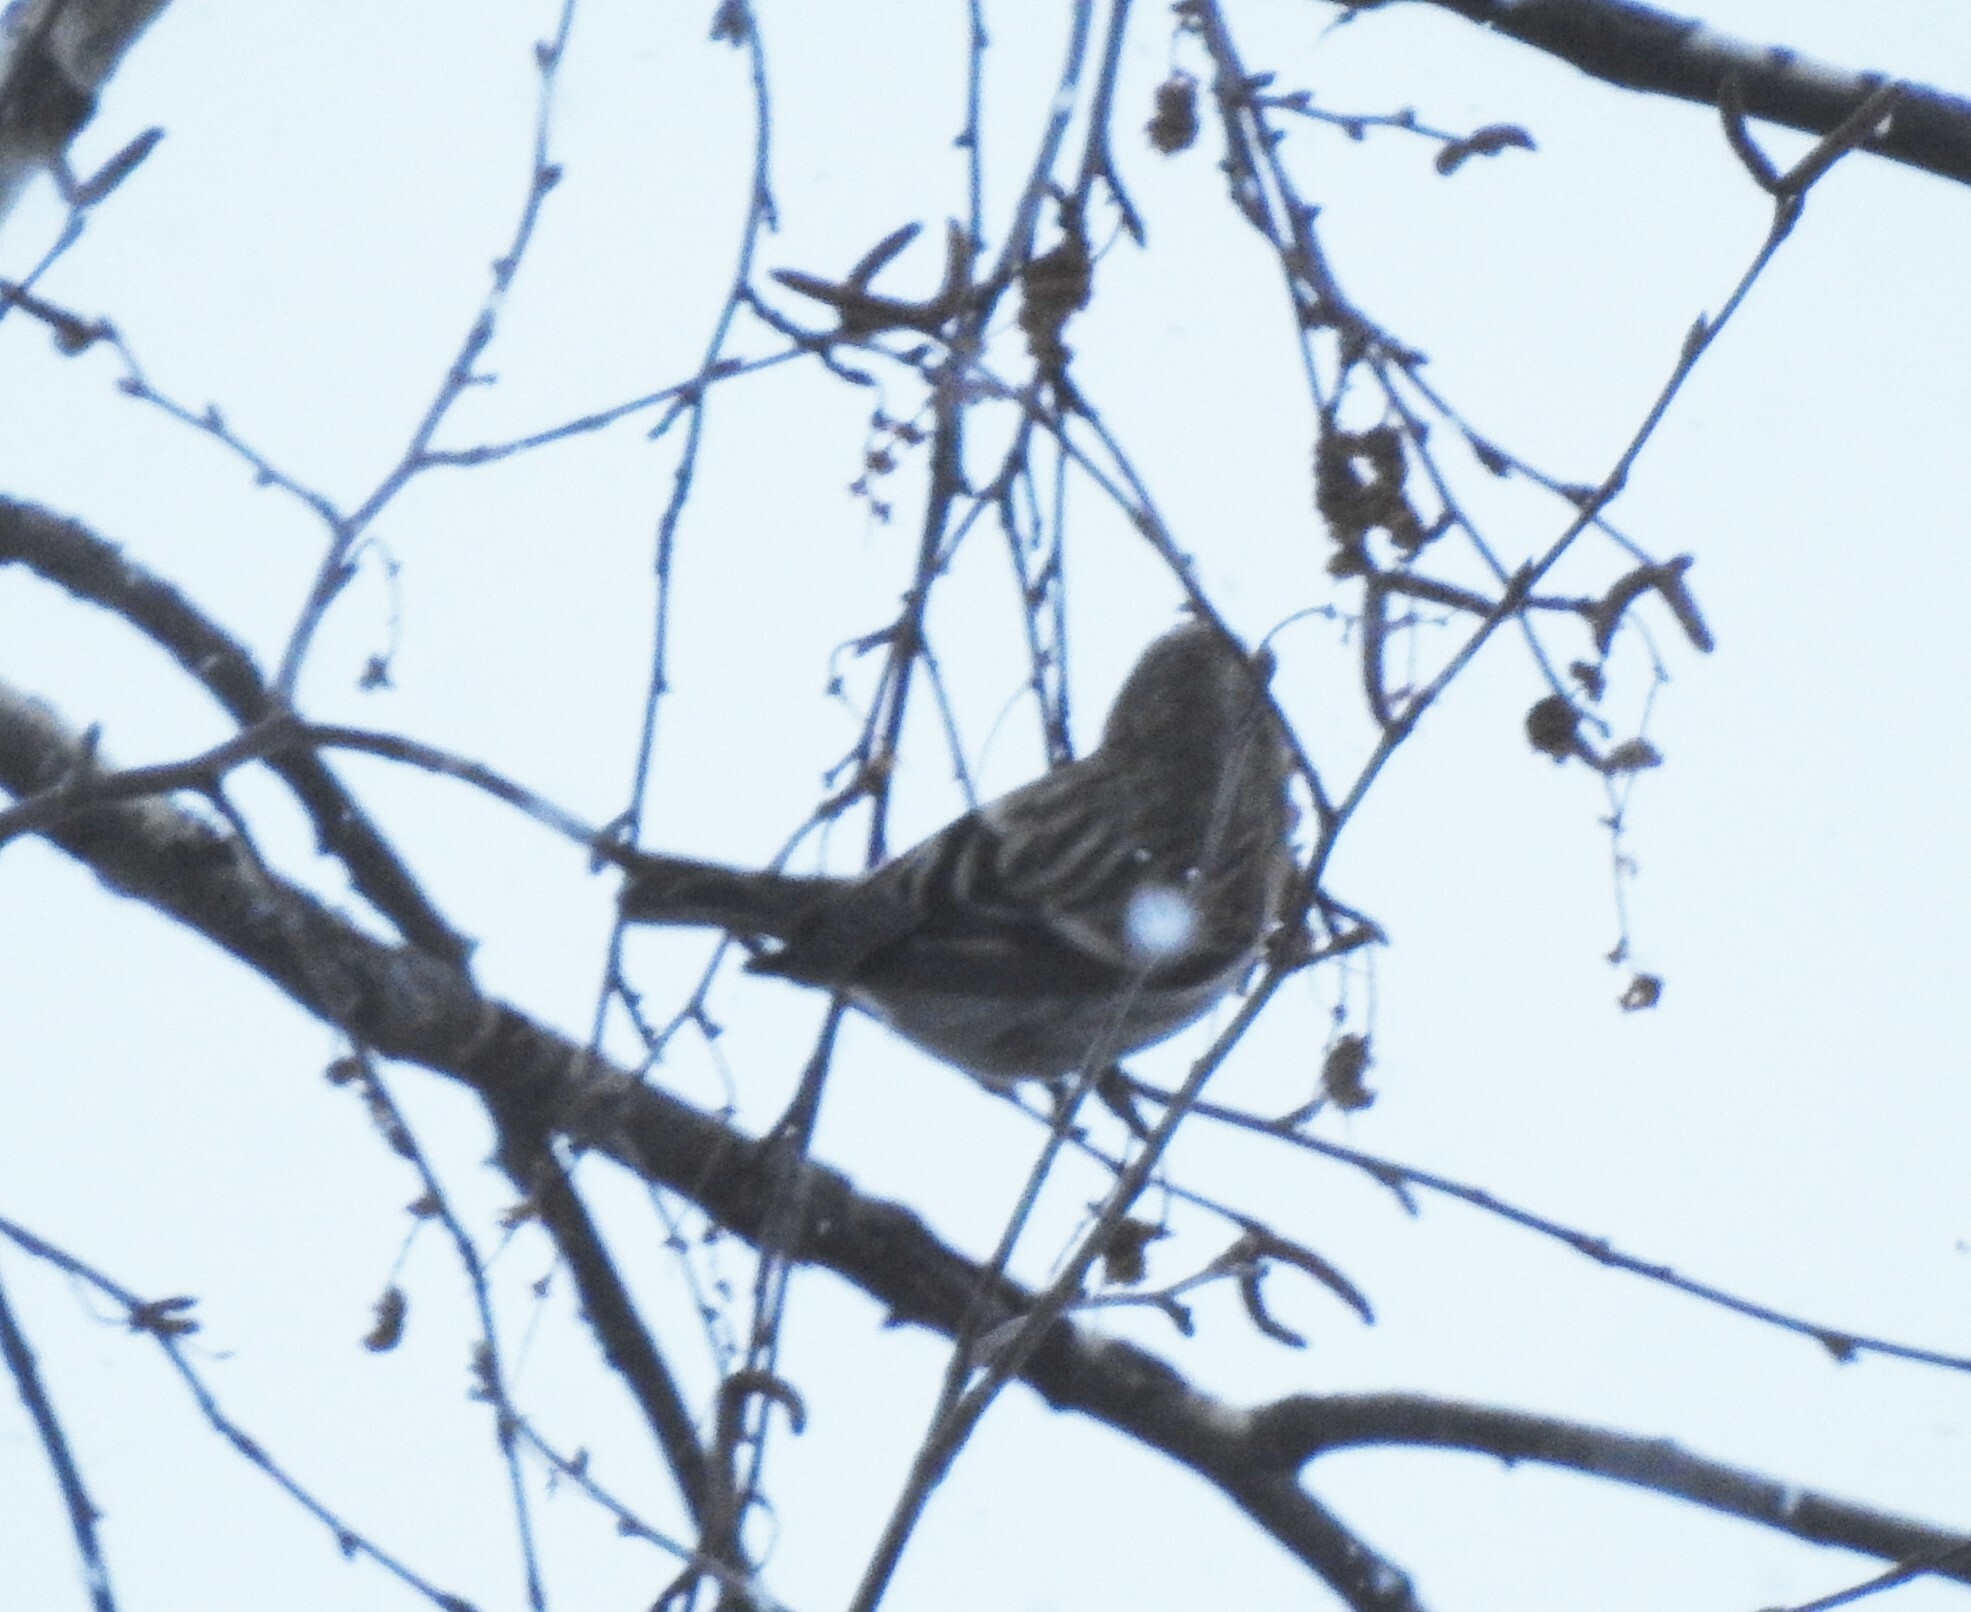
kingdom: Animalia
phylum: Chordata
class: Aves
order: Passeriformes
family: Fringillidae
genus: Acanthis
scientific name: Acanthis flammea
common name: Common redpoll
